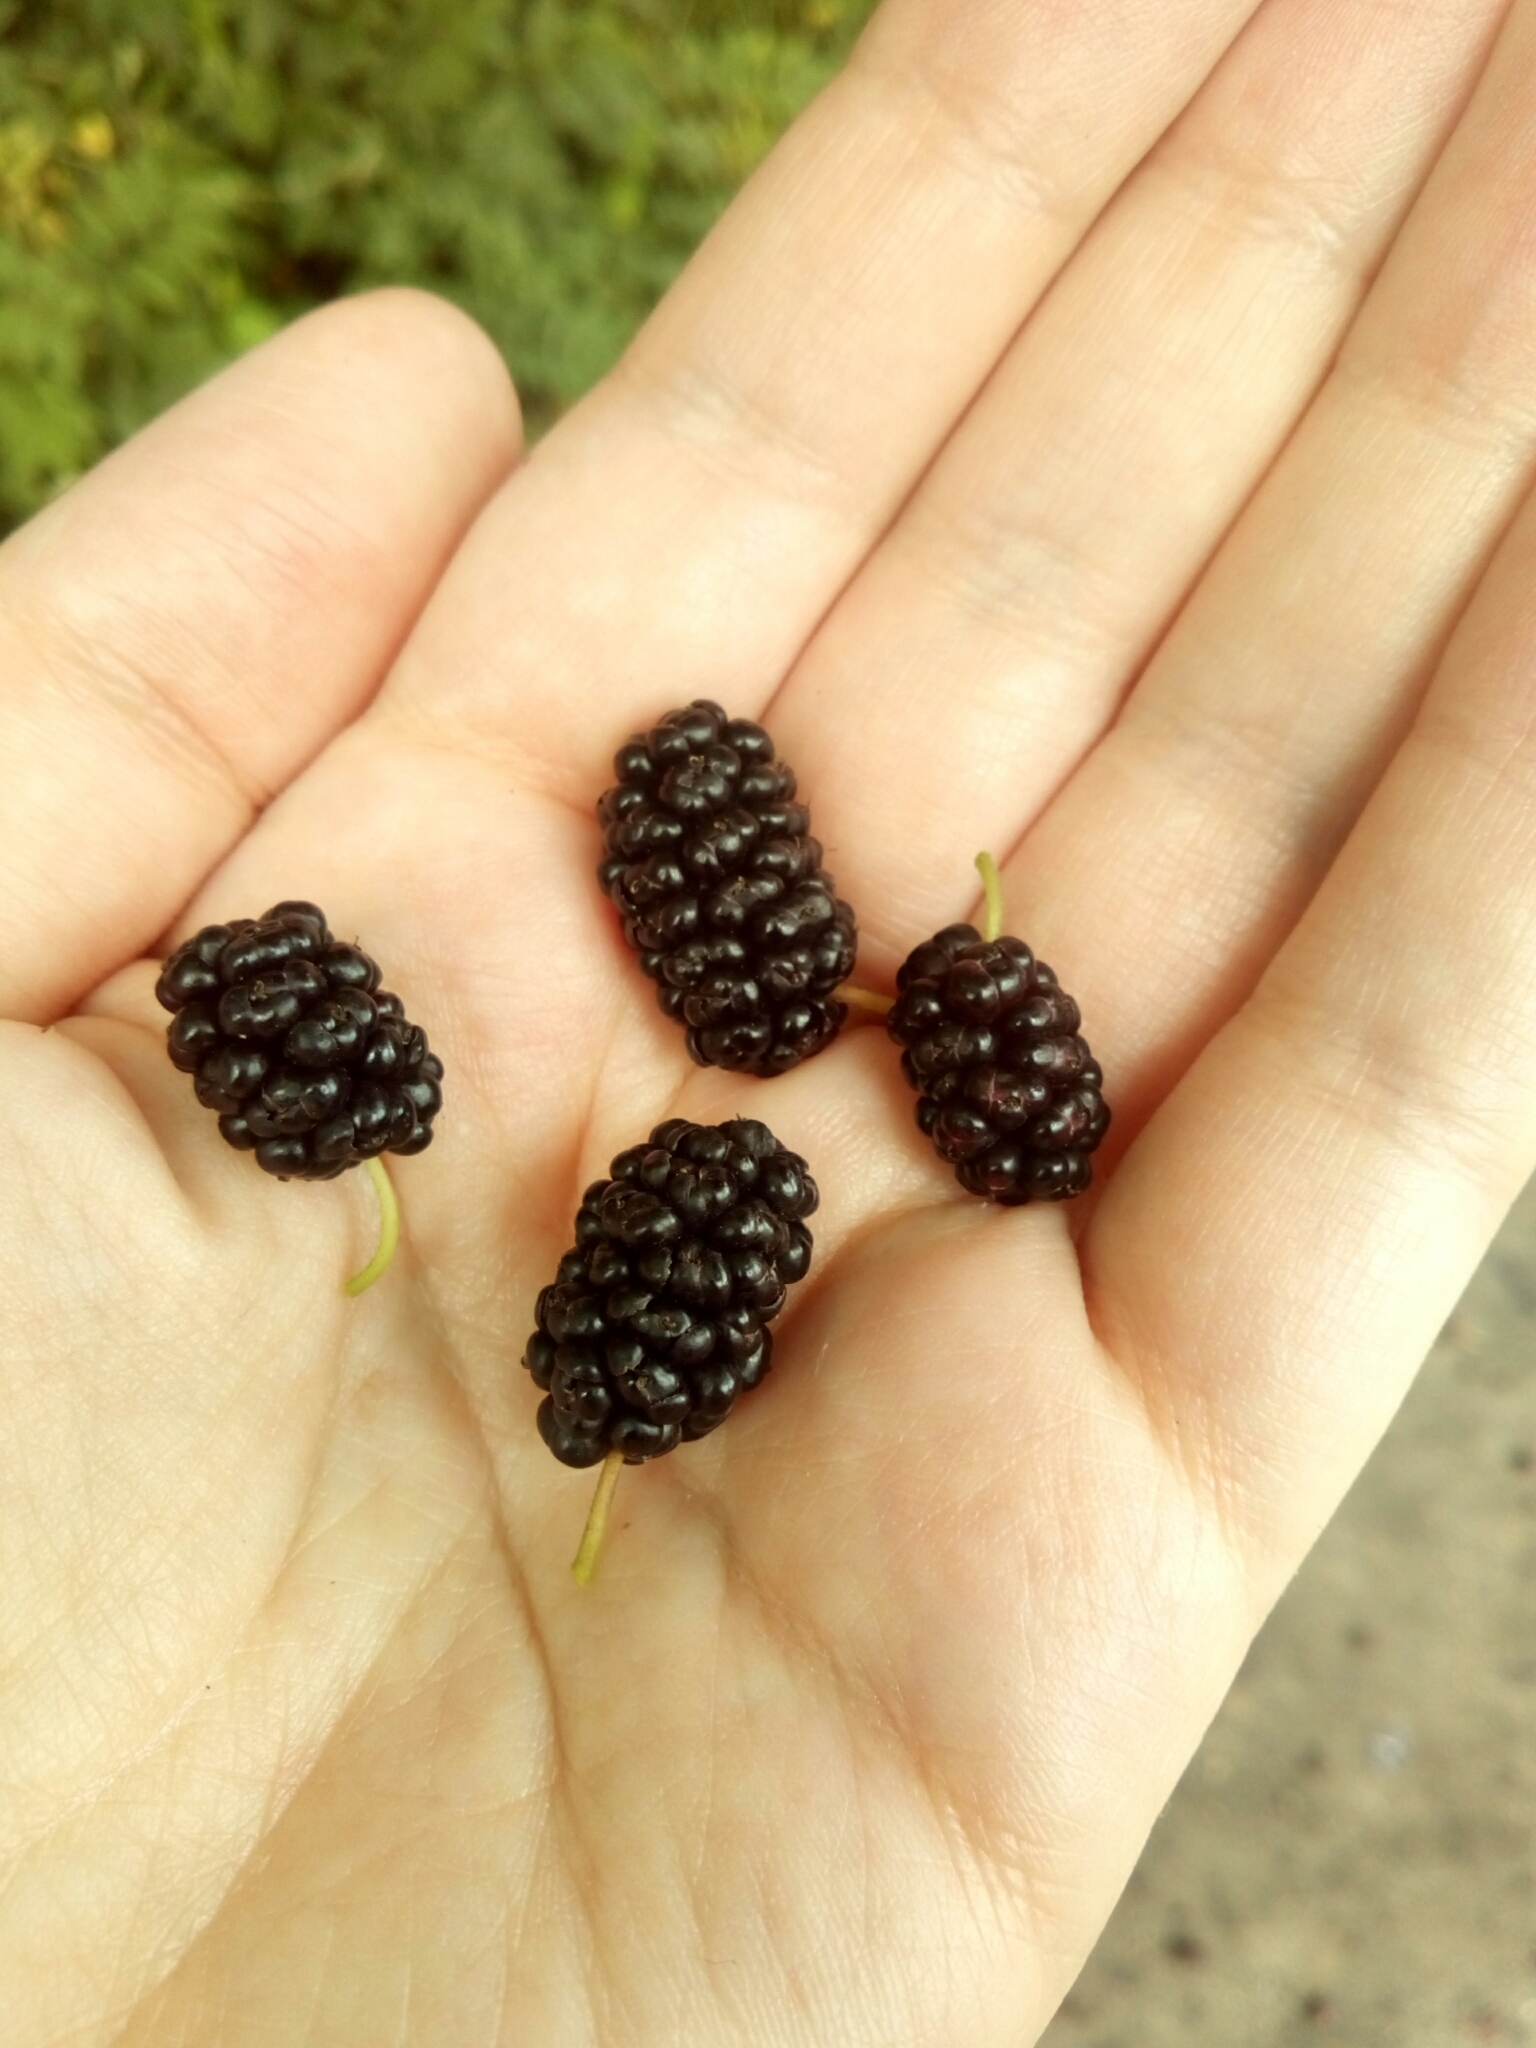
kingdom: Plantae
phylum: Tracheophyta
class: Magnoliopsida
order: Rosales
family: Moraceae
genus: Morus
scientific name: Morus alba
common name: White mulberry
